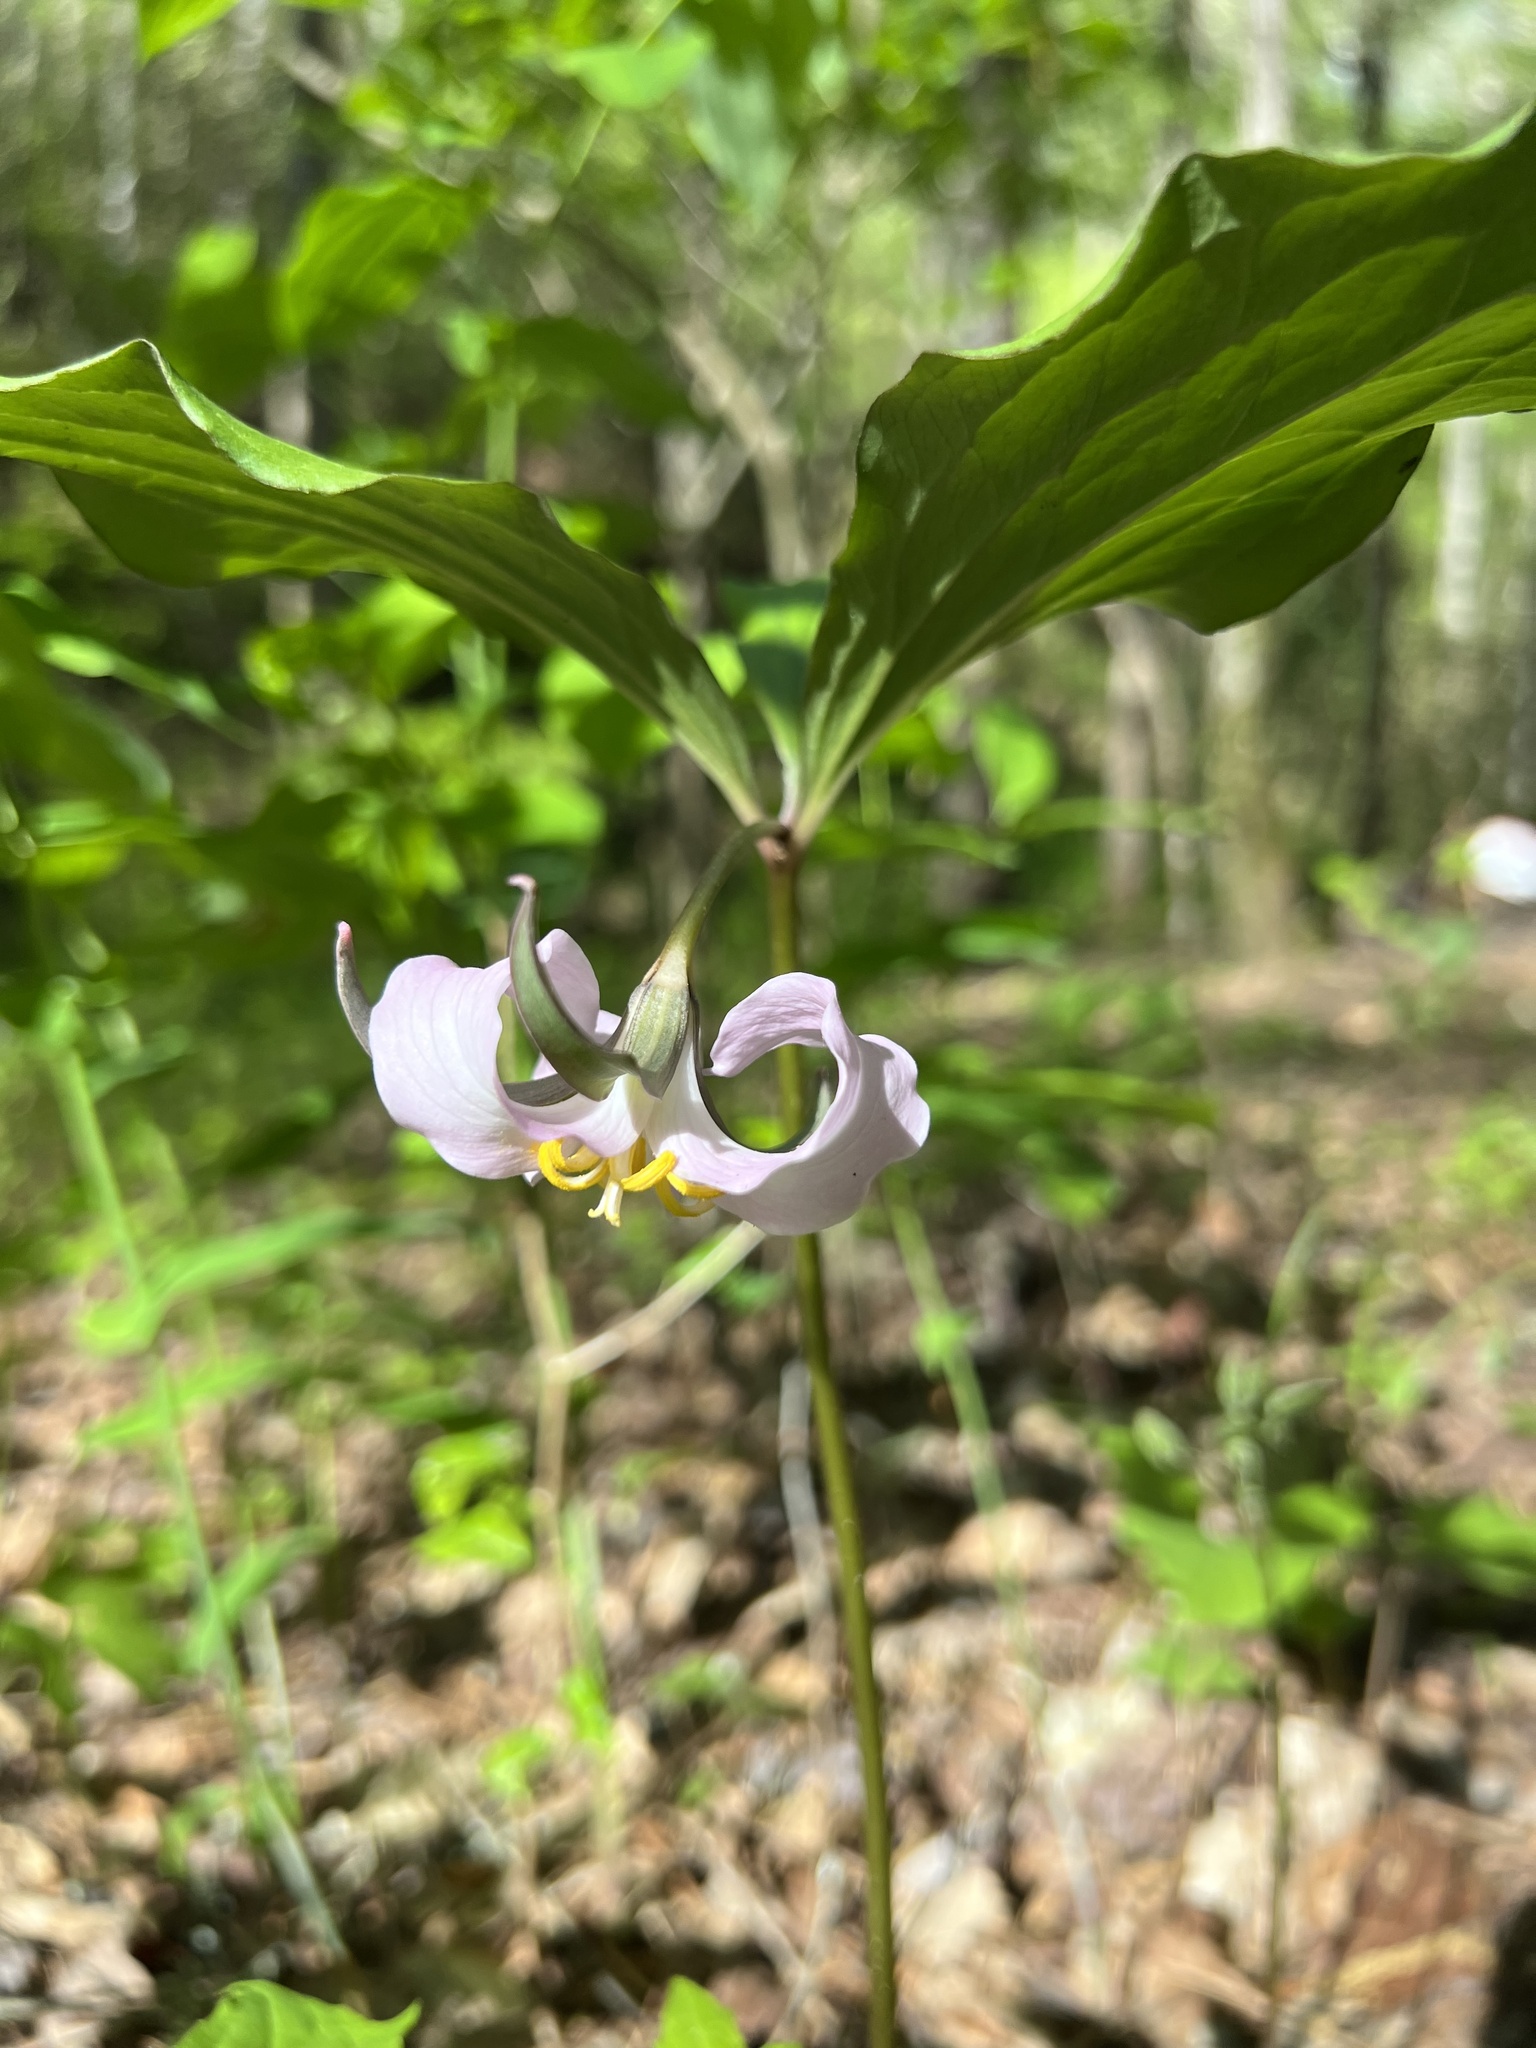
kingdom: Plantae
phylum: Tracheophyta
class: Liliopsida
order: Liliales
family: Melanthiaceae
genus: Trillium
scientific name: Trillium catesbaei
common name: Bashful trillium
